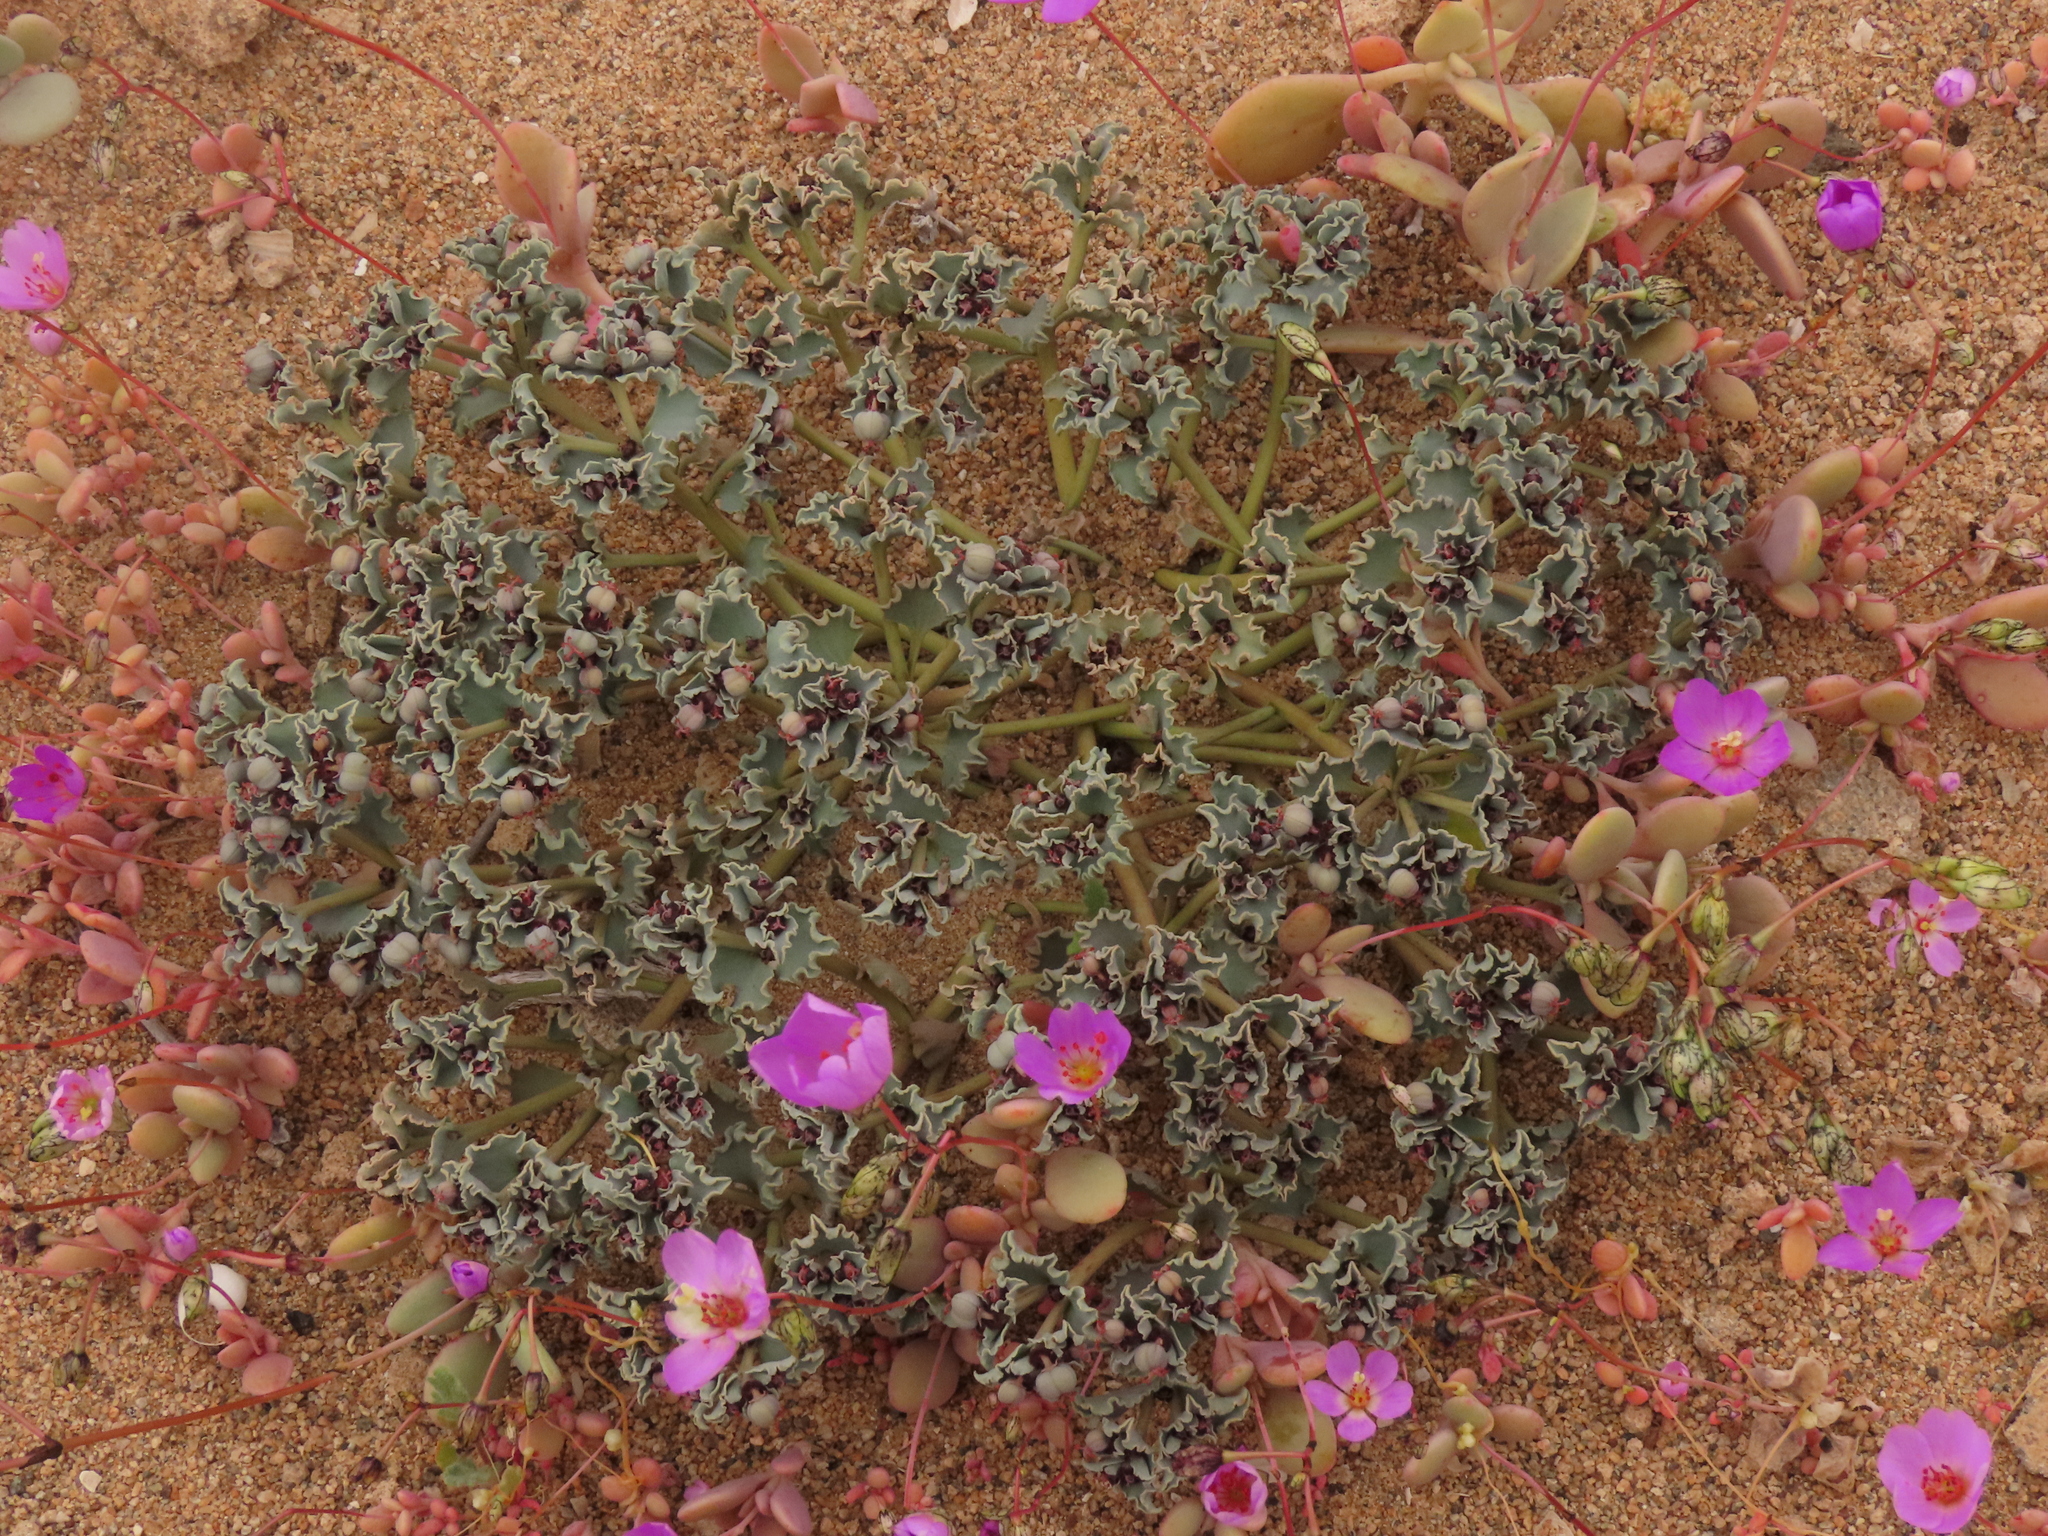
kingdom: Plantae
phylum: Tracheophyta
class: Magnoliopsida
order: Malpighiales
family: Euphorbiaceae
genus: Euphorbia
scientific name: Euphorbia copiapina
